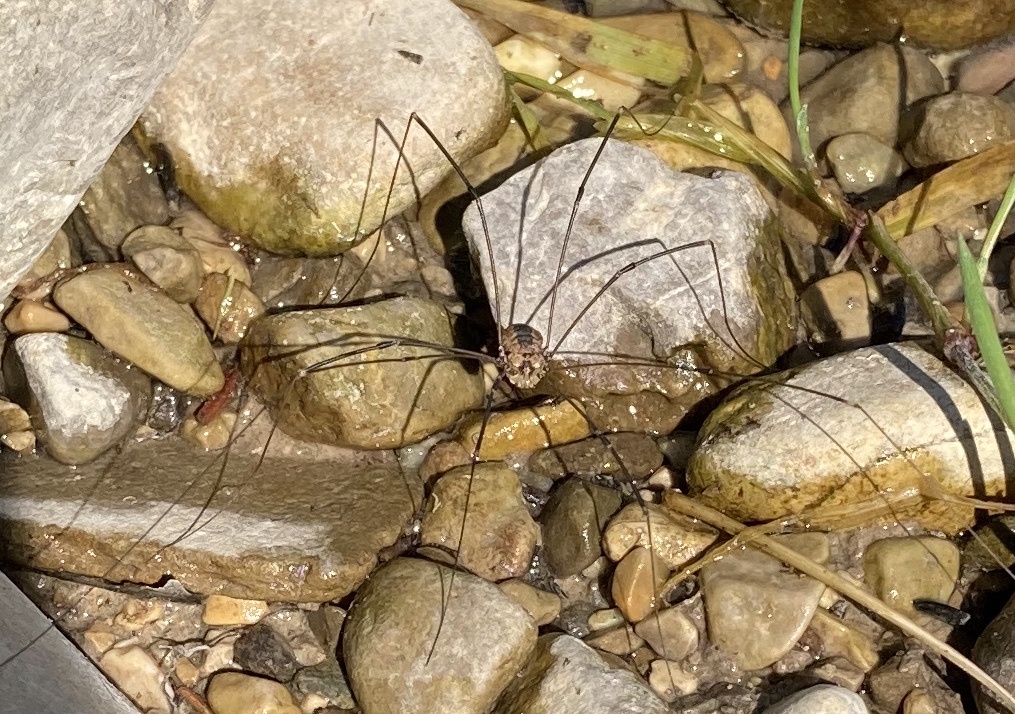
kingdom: Animalia
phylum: Arthropoda
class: Arachnida
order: Opiliones
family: Sclerosomatidae
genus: Leiobunum
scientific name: Leiobunum rotundum
